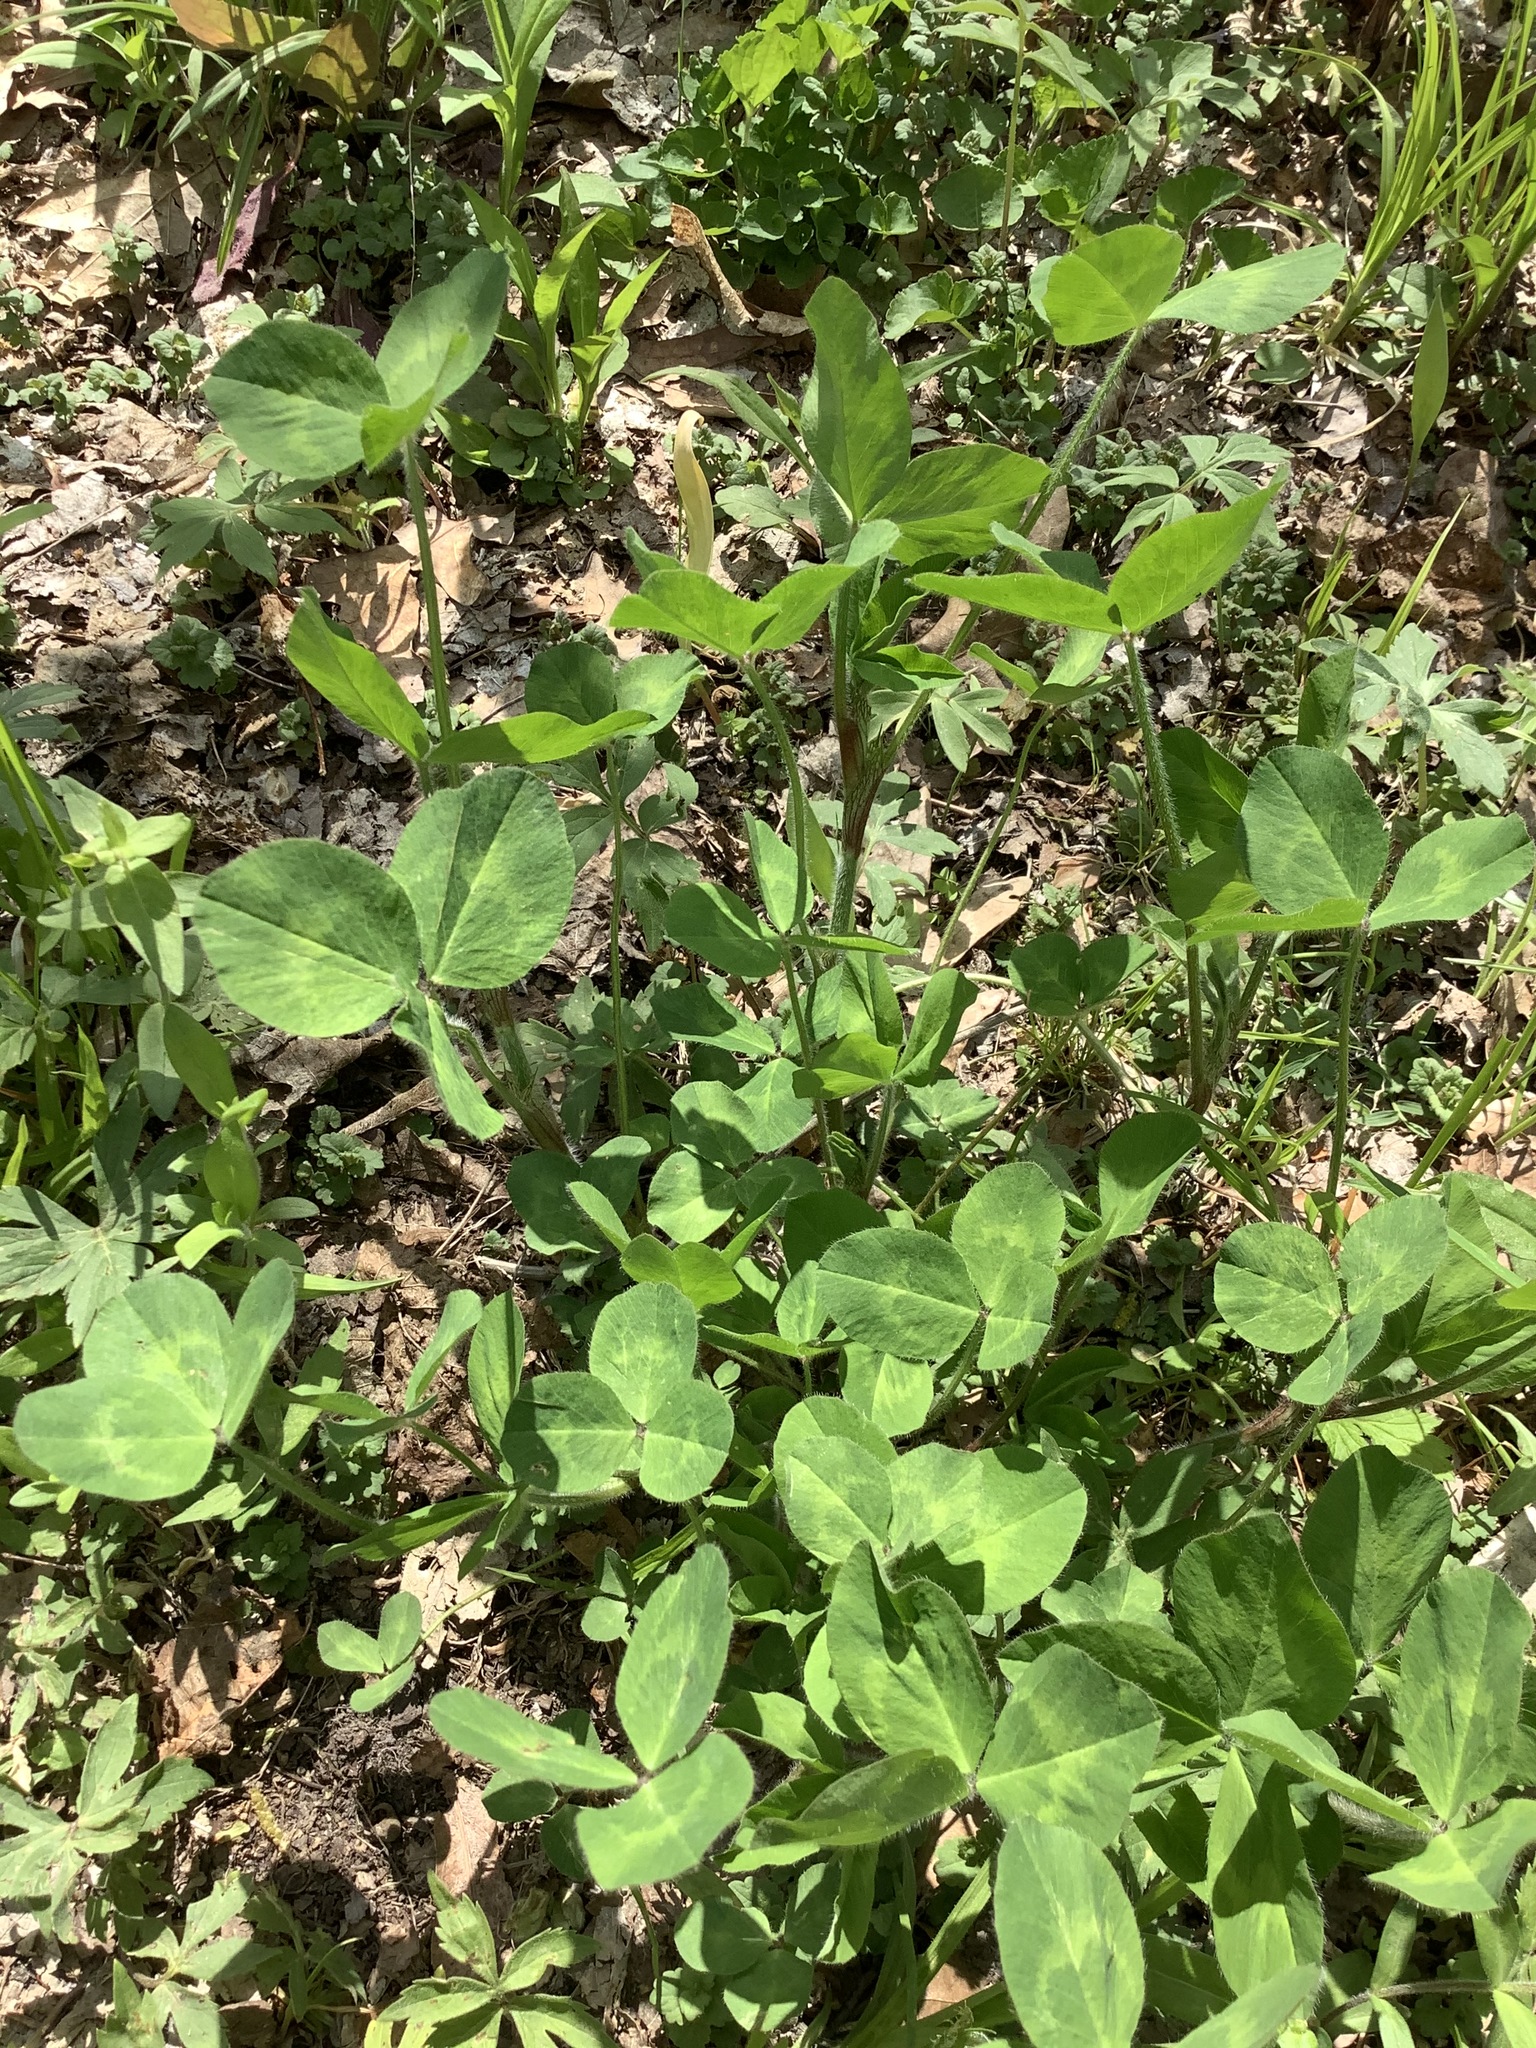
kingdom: Plantae
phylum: Tracheophyta
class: Magnoliopsida
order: Fabales
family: Fabaceae
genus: Trifolium
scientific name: Trifolium pratense
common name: Red clover
